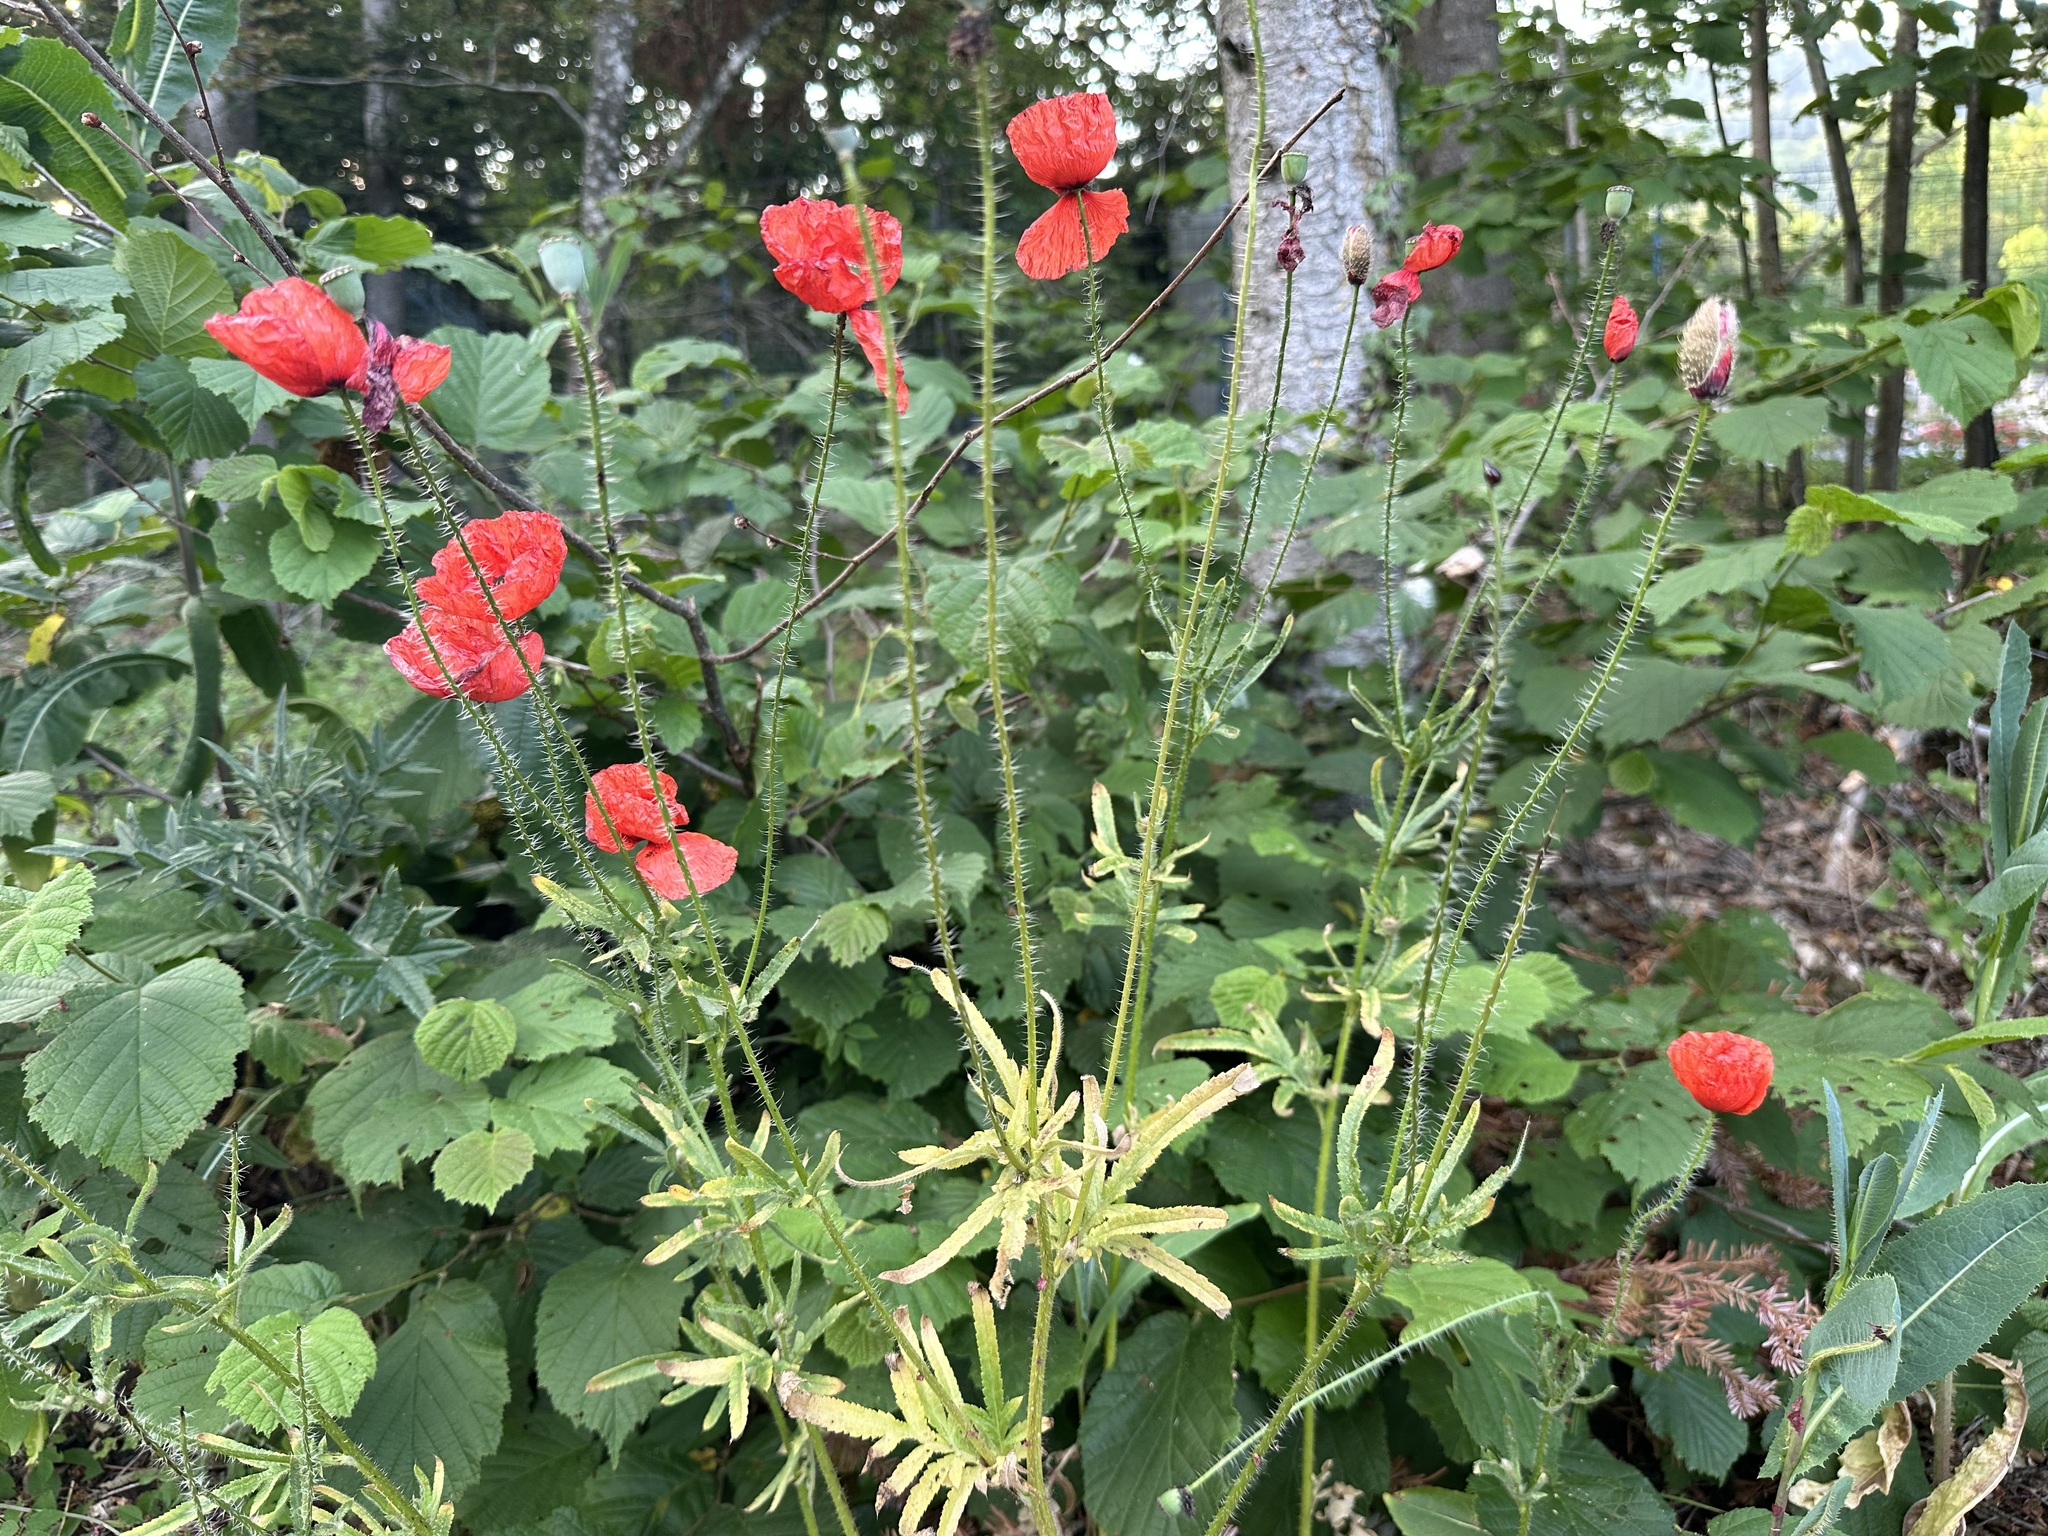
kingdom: Plantae
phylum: Tracheophyta
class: Magnoliopsida
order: Ranunculales
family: Papaveraceae
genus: Papaver
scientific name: Papaver rhoeas
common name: Corn poppy
